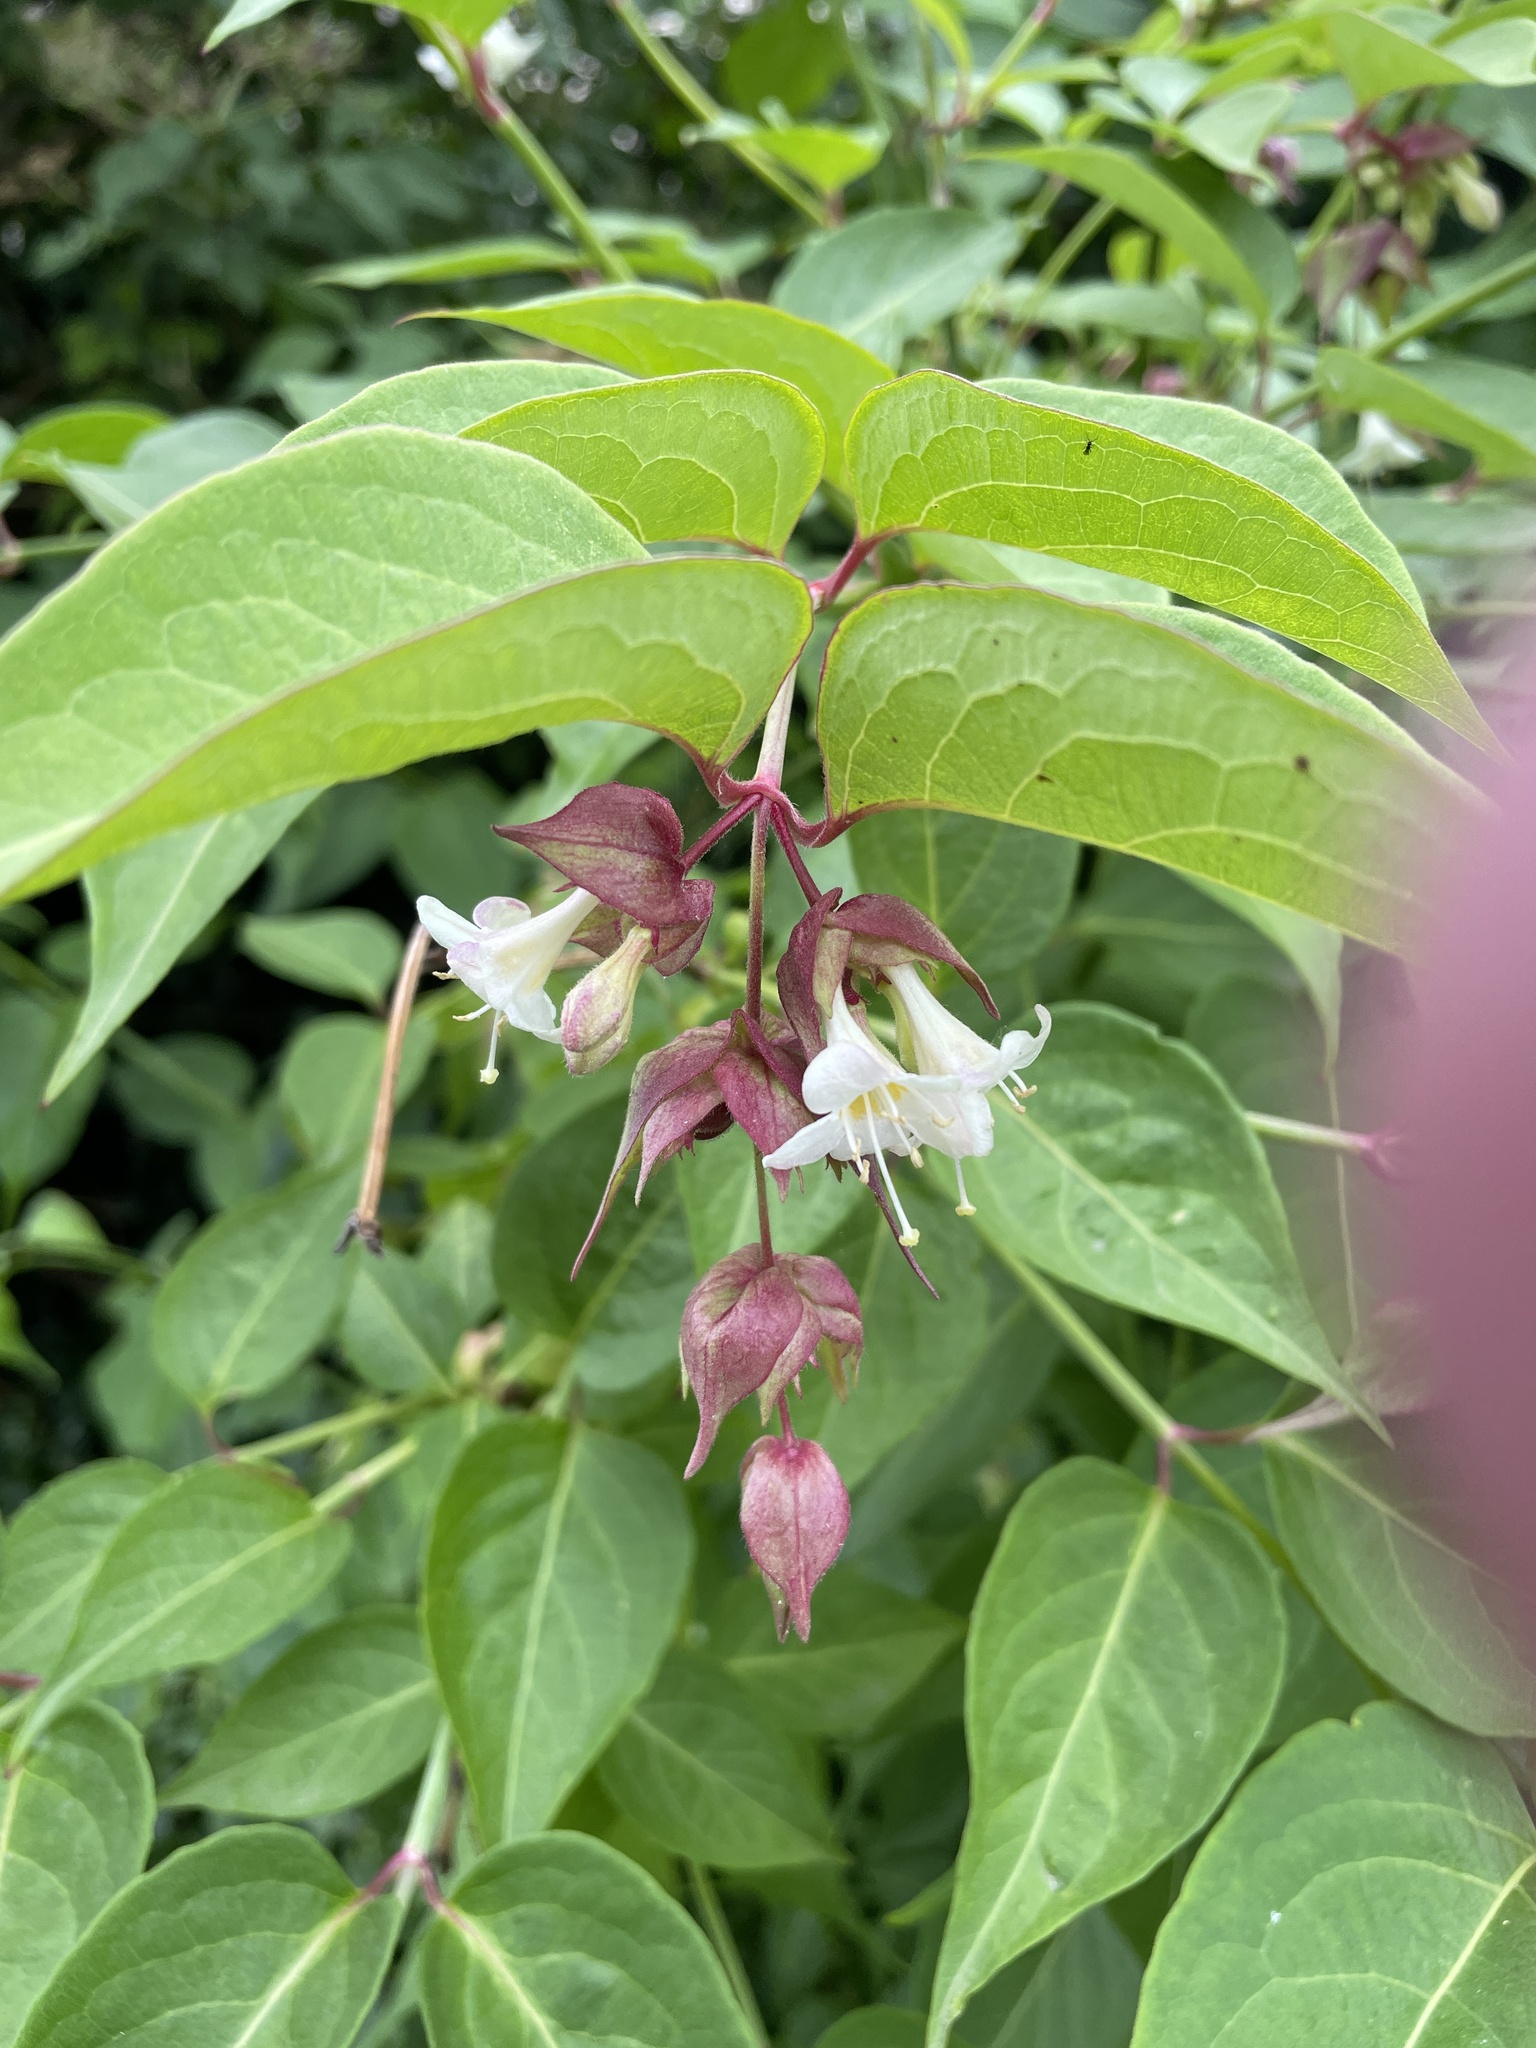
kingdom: Plantae
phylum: Tracheophyta
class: Magnoliopsida
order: Dipsacales
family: Caprifoliaceae
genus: Leycesteria
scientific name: Leycesteria formosa
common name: Himalayan honeysuckle
